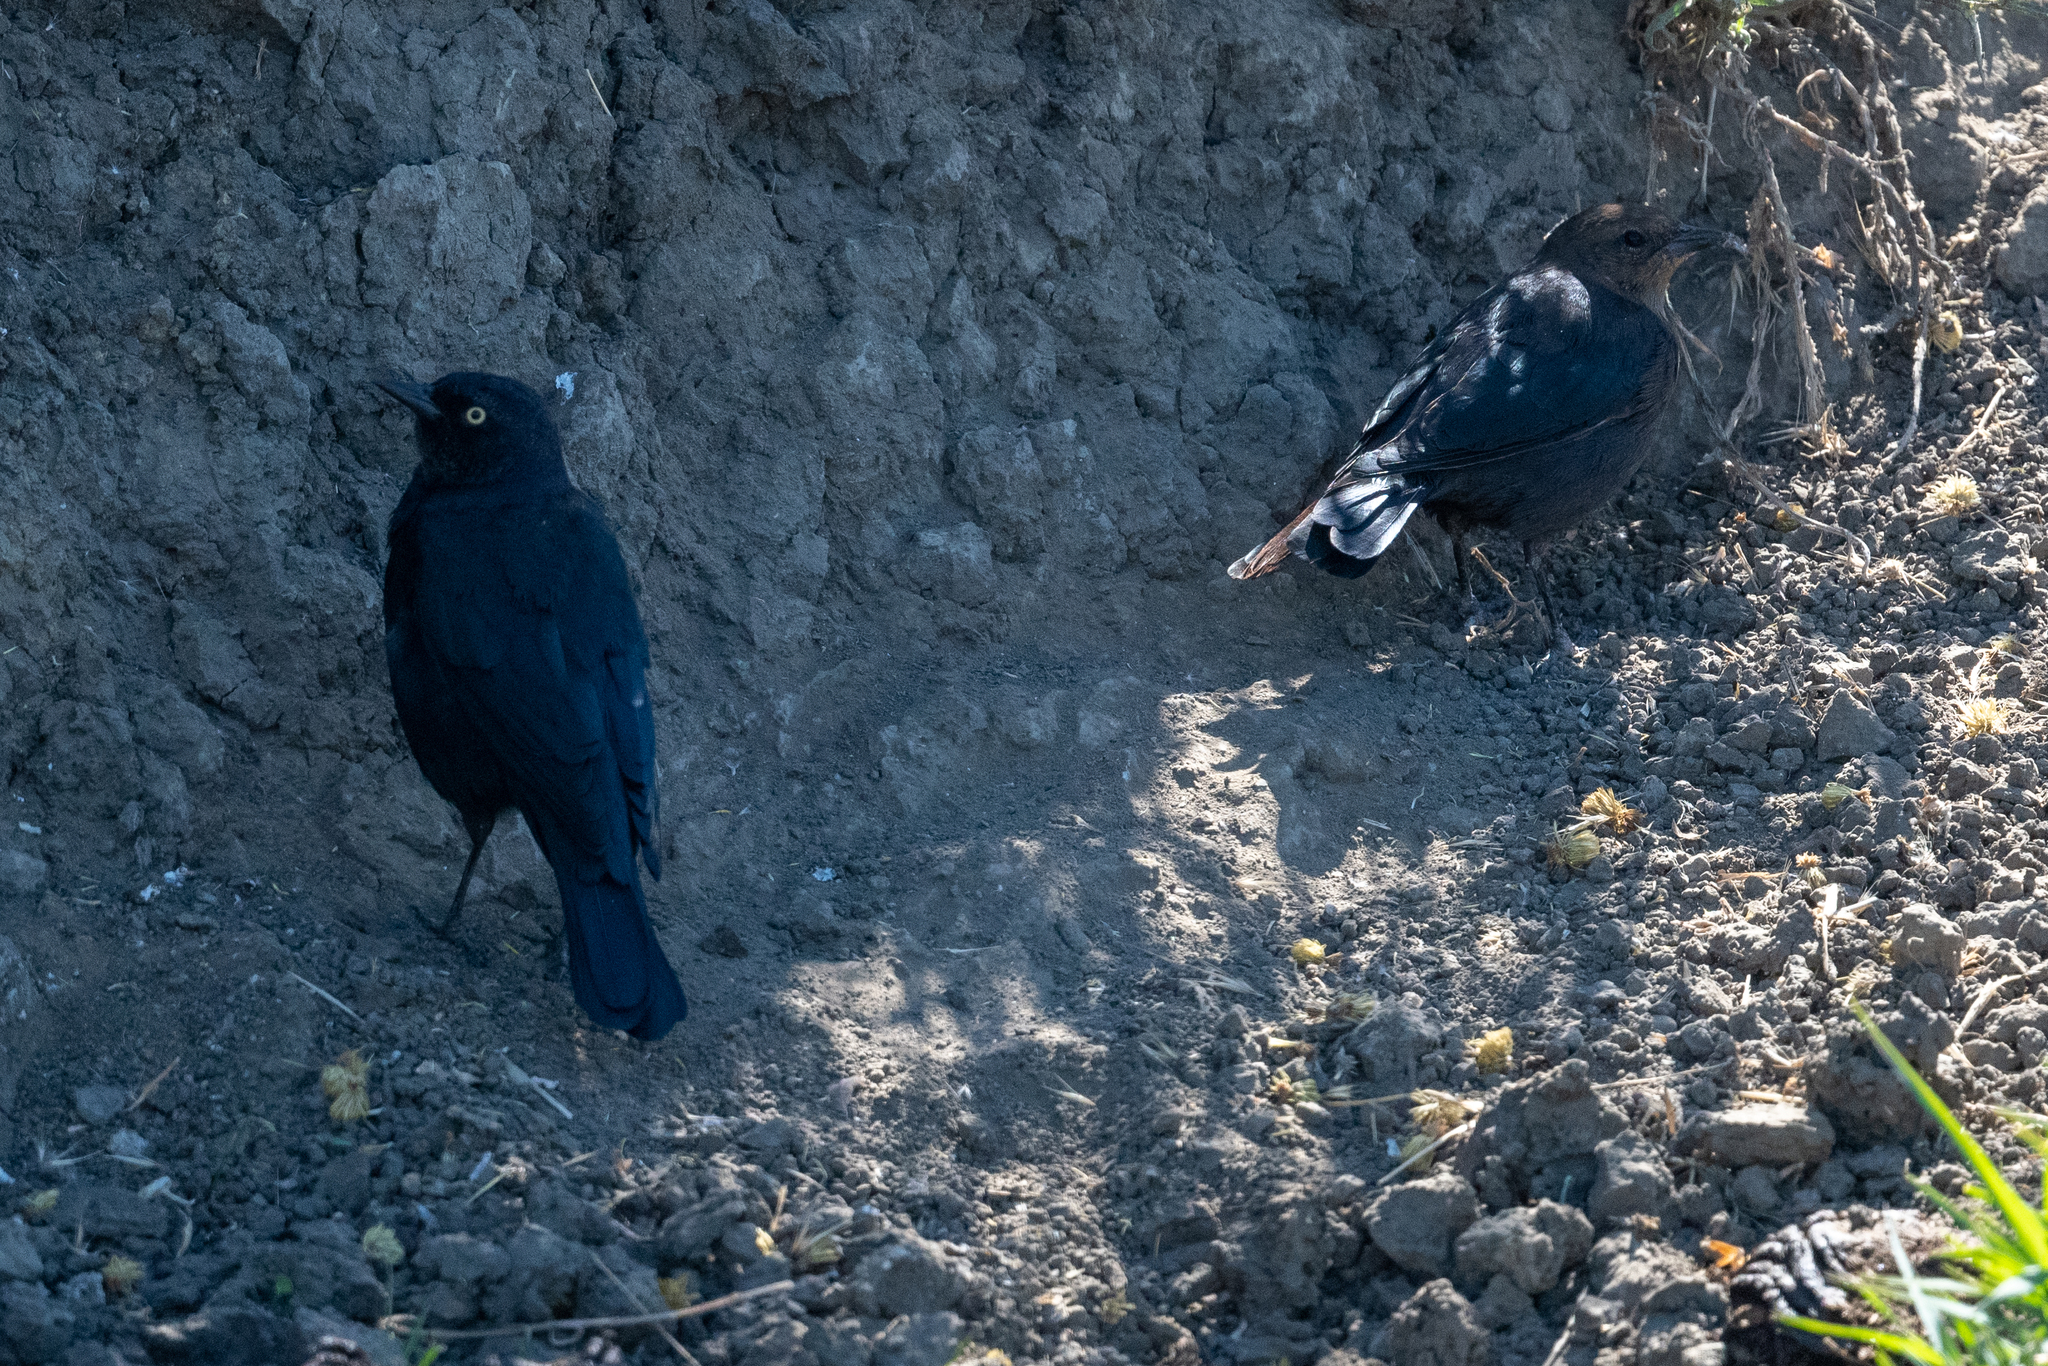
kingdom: Animalia
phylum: Chordata
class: Aves
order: Passeriformes
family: Icteridae
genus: Euphagus
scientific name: Euphagus cyanocephalus
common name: Brewer's blackbird
